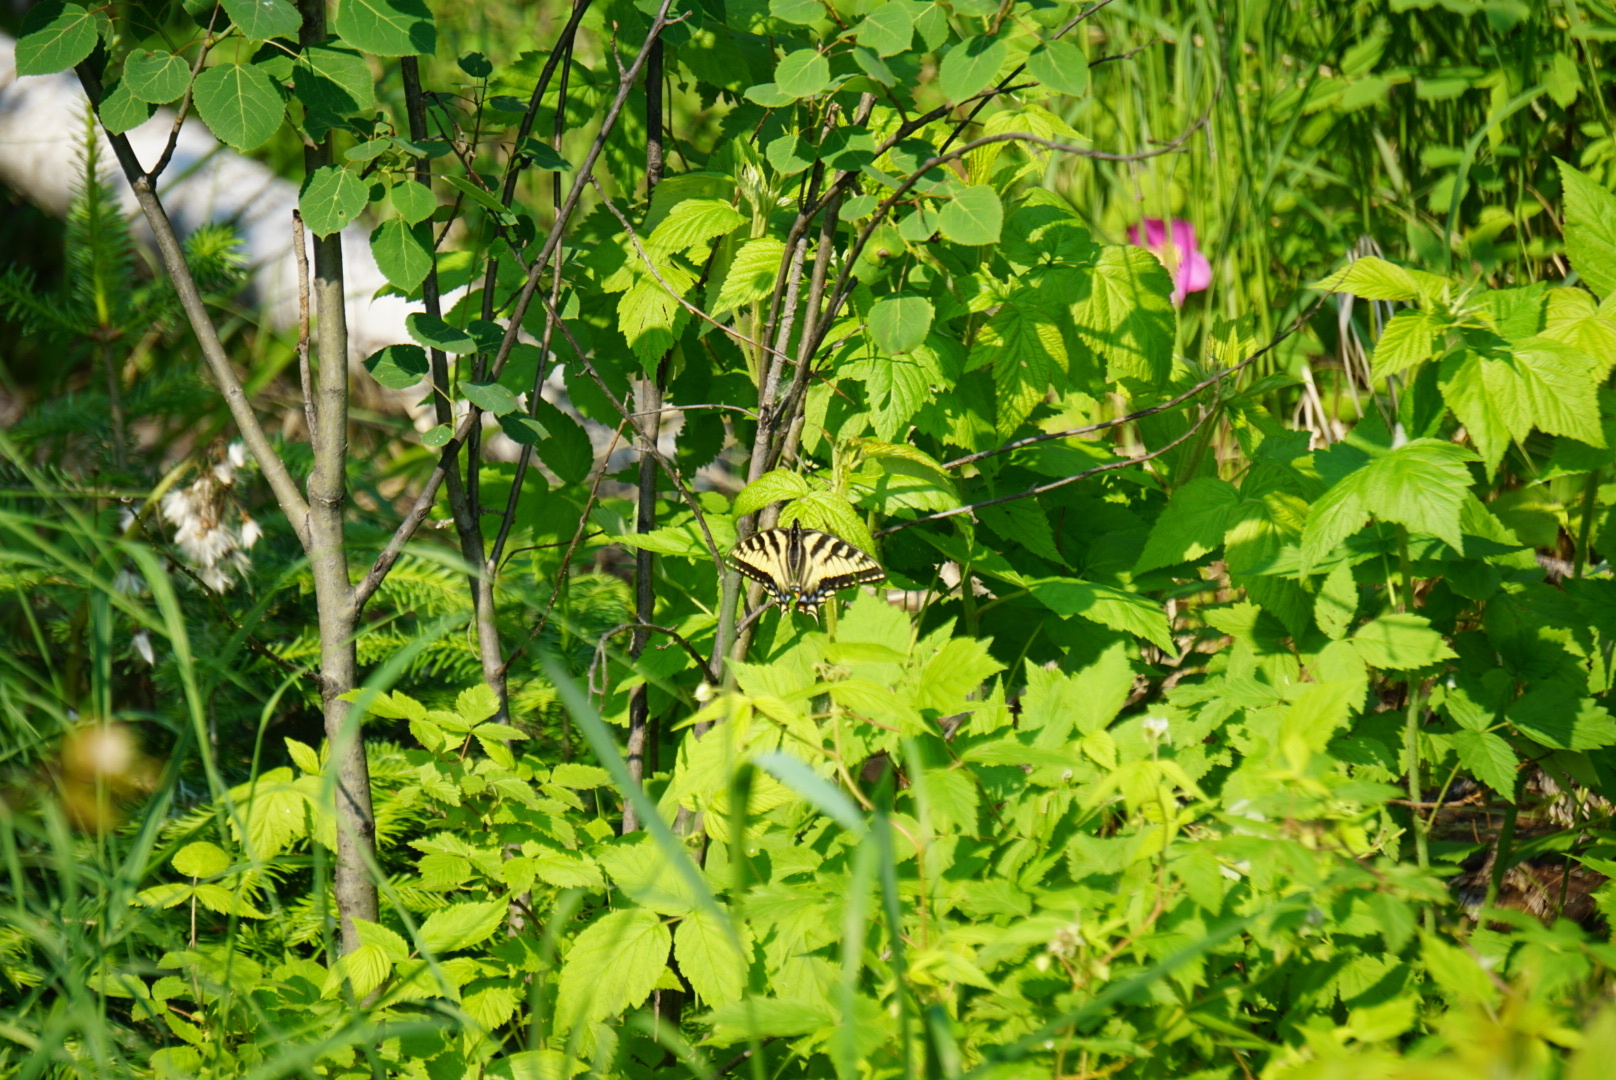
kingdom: Animalia
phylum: Arthropoda
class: Insecta
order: Lepidoptera
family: Papilionidae
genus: Papilio
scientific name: Papilio canadensis
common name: Canadian tiger swallowtail
